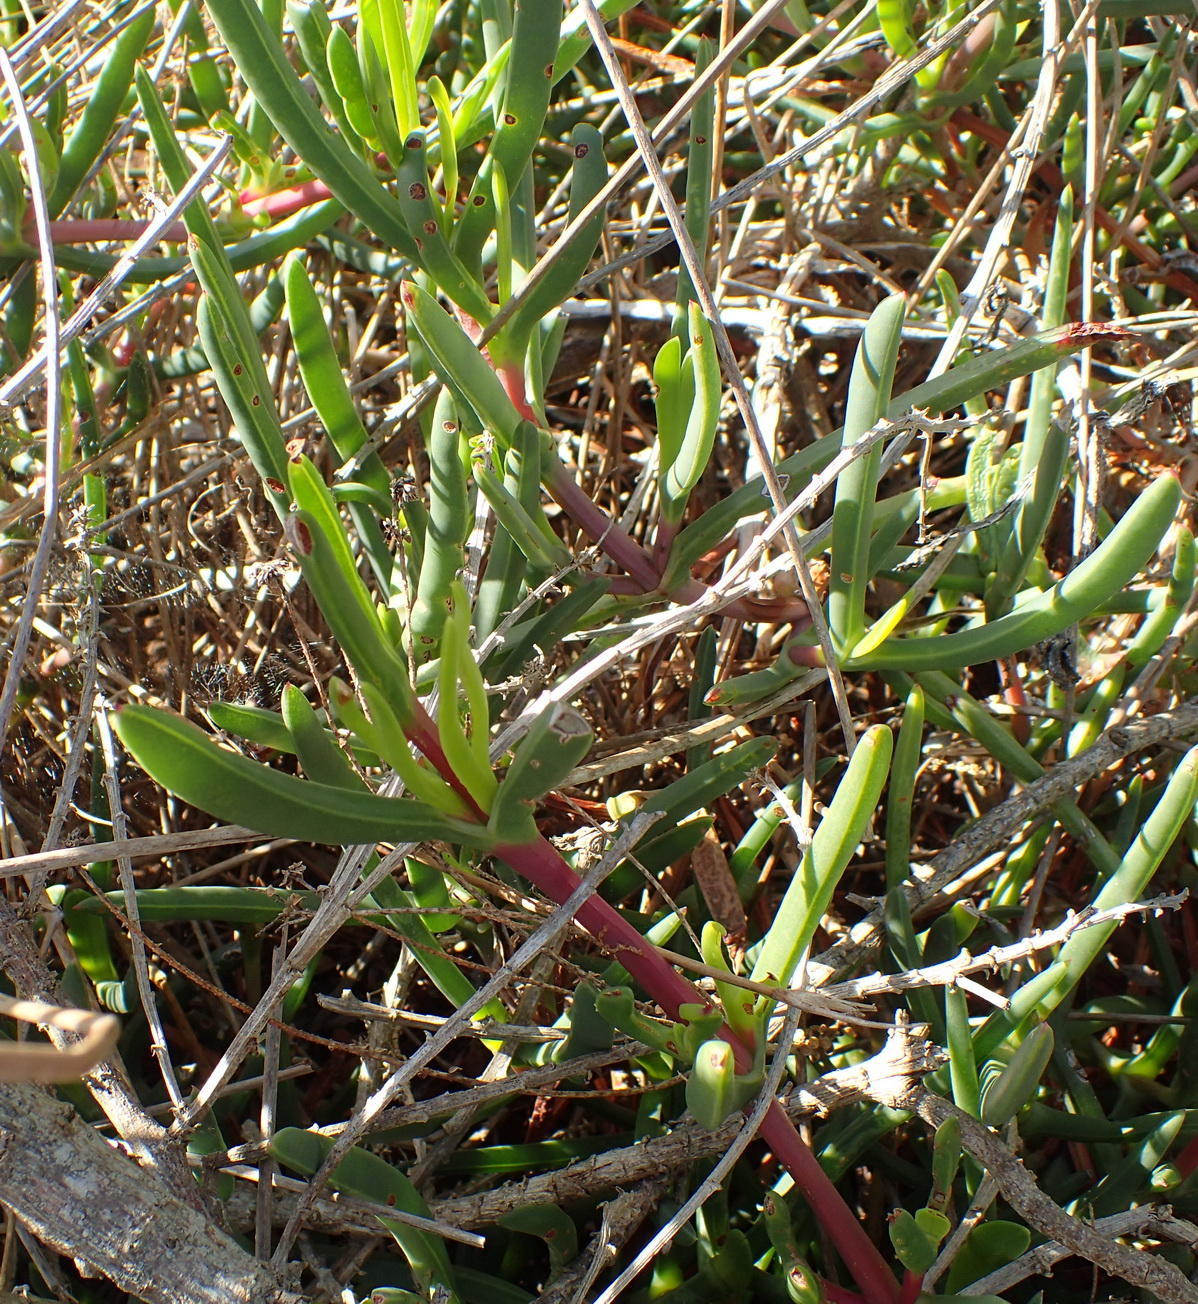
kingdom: Plantae
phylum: Tracheophyta
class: Magnoliopsida
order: Caryophyllales
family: Aizoaceae
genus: Carpobrotus
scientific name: Carpobrotus muirii
